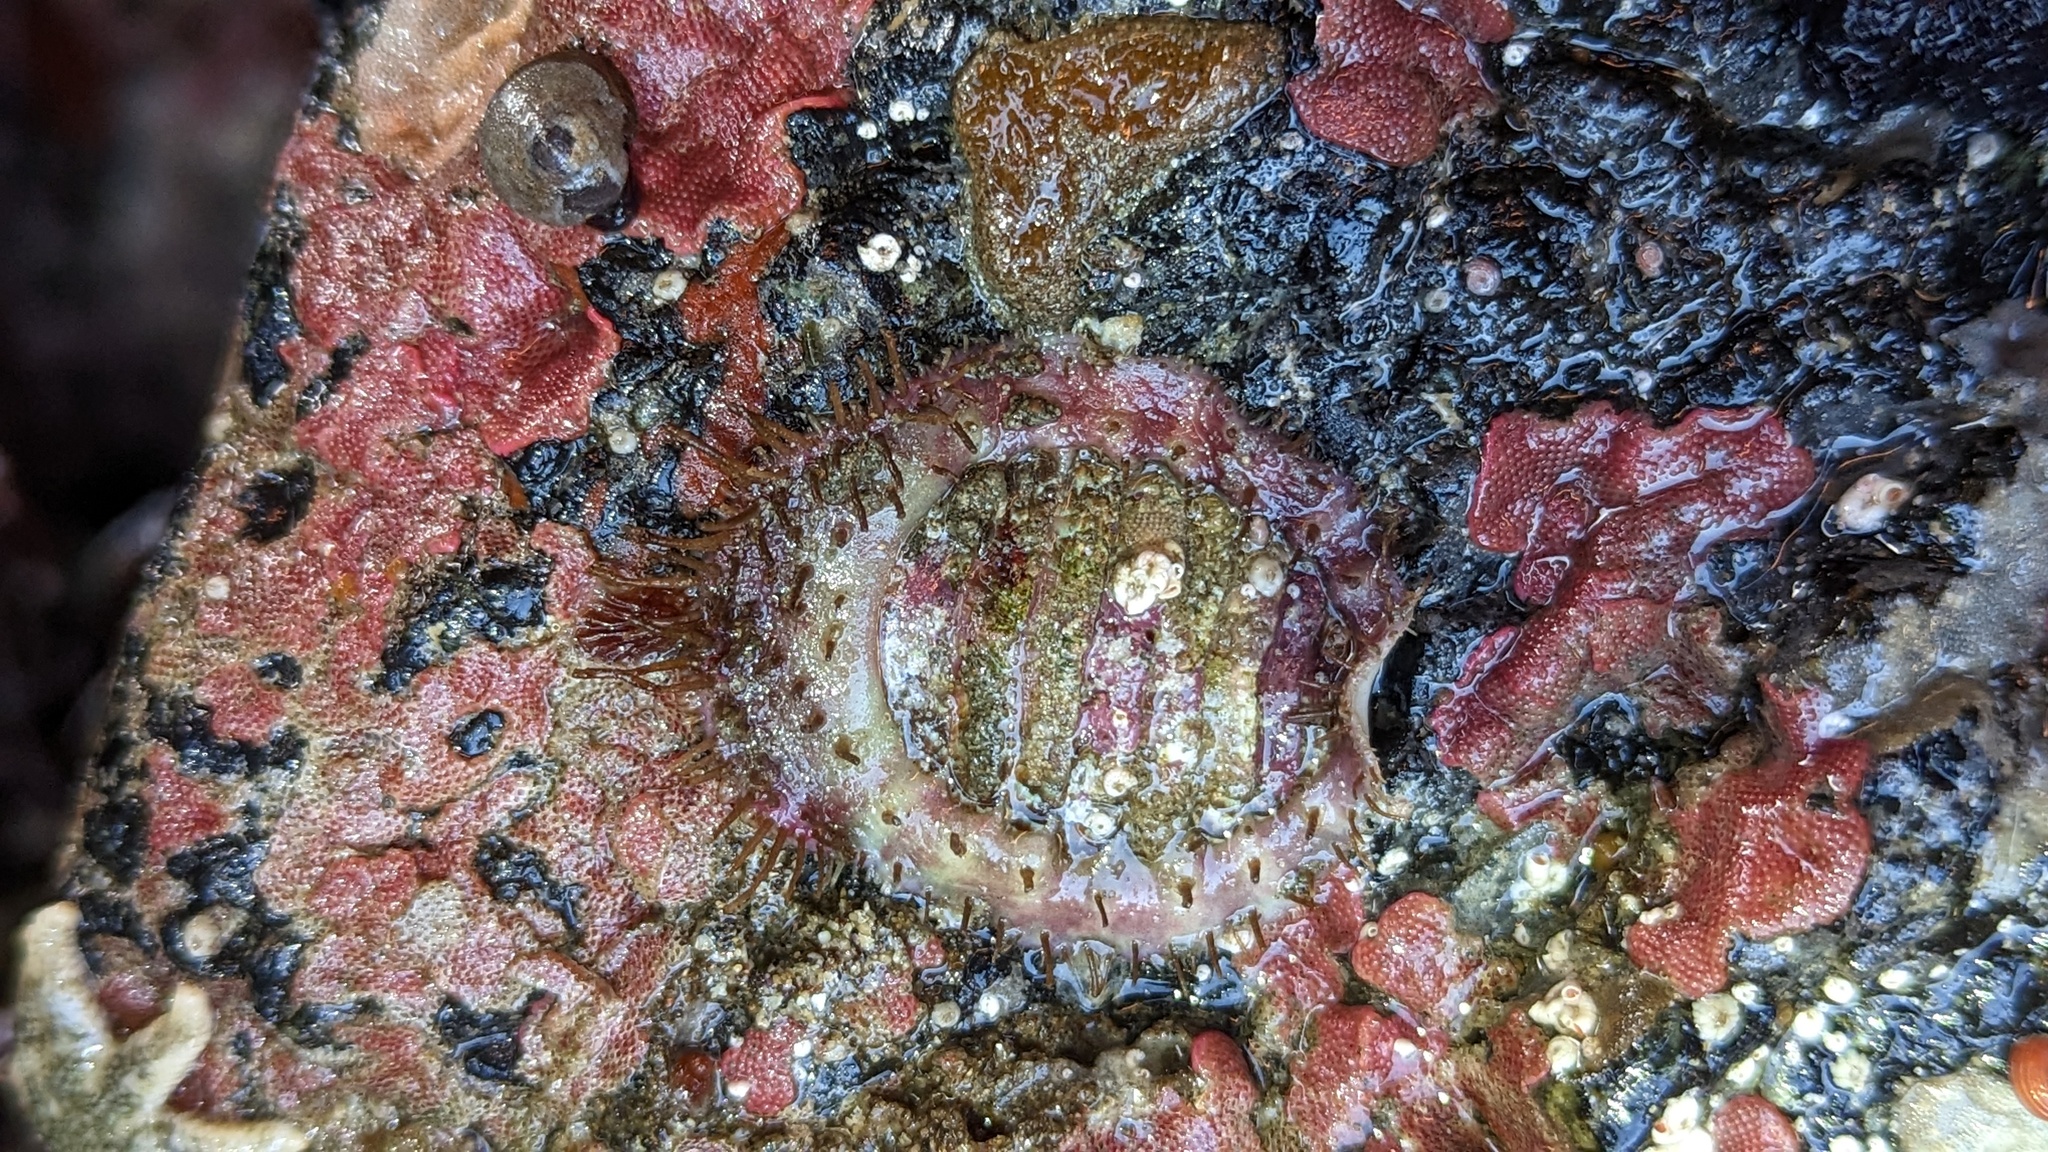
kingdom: Animalia
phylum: Mollusca
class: Polyplacophora
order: Chitonida
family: Mopaliidae
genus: Placiphorella
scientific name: Placiphorella velata
